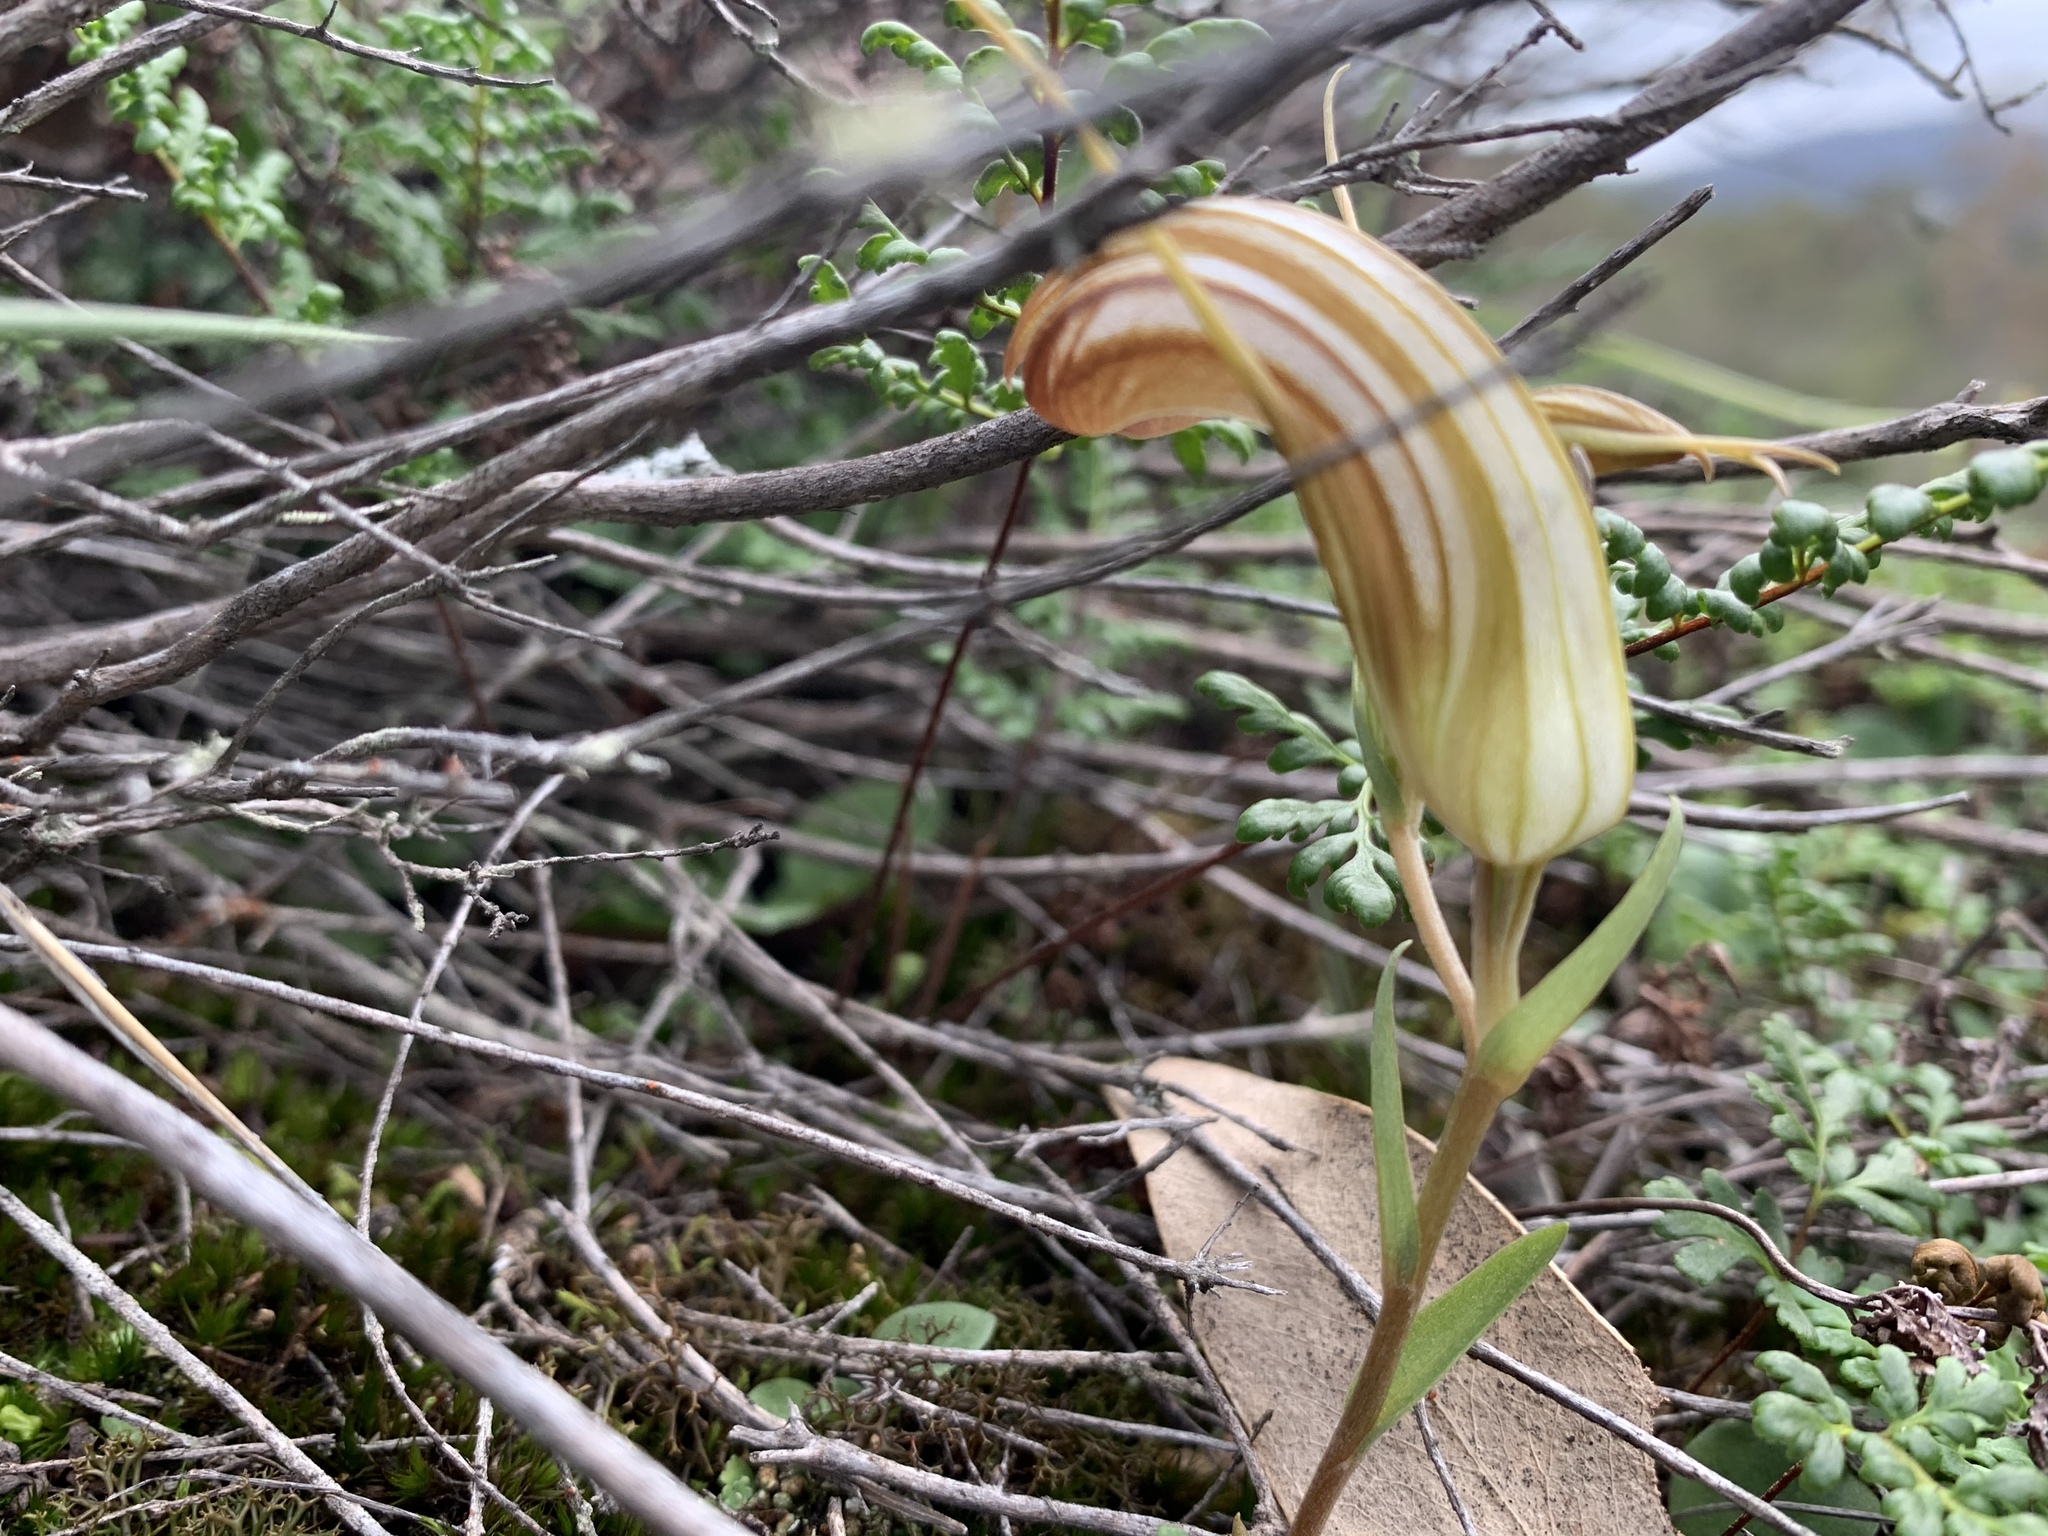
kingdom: Plantae
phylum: Tracheophyta
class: Liliopsida
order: Asparagales
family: Orchidaceae
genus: Pterostylis
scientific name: Pterostylis truncata
